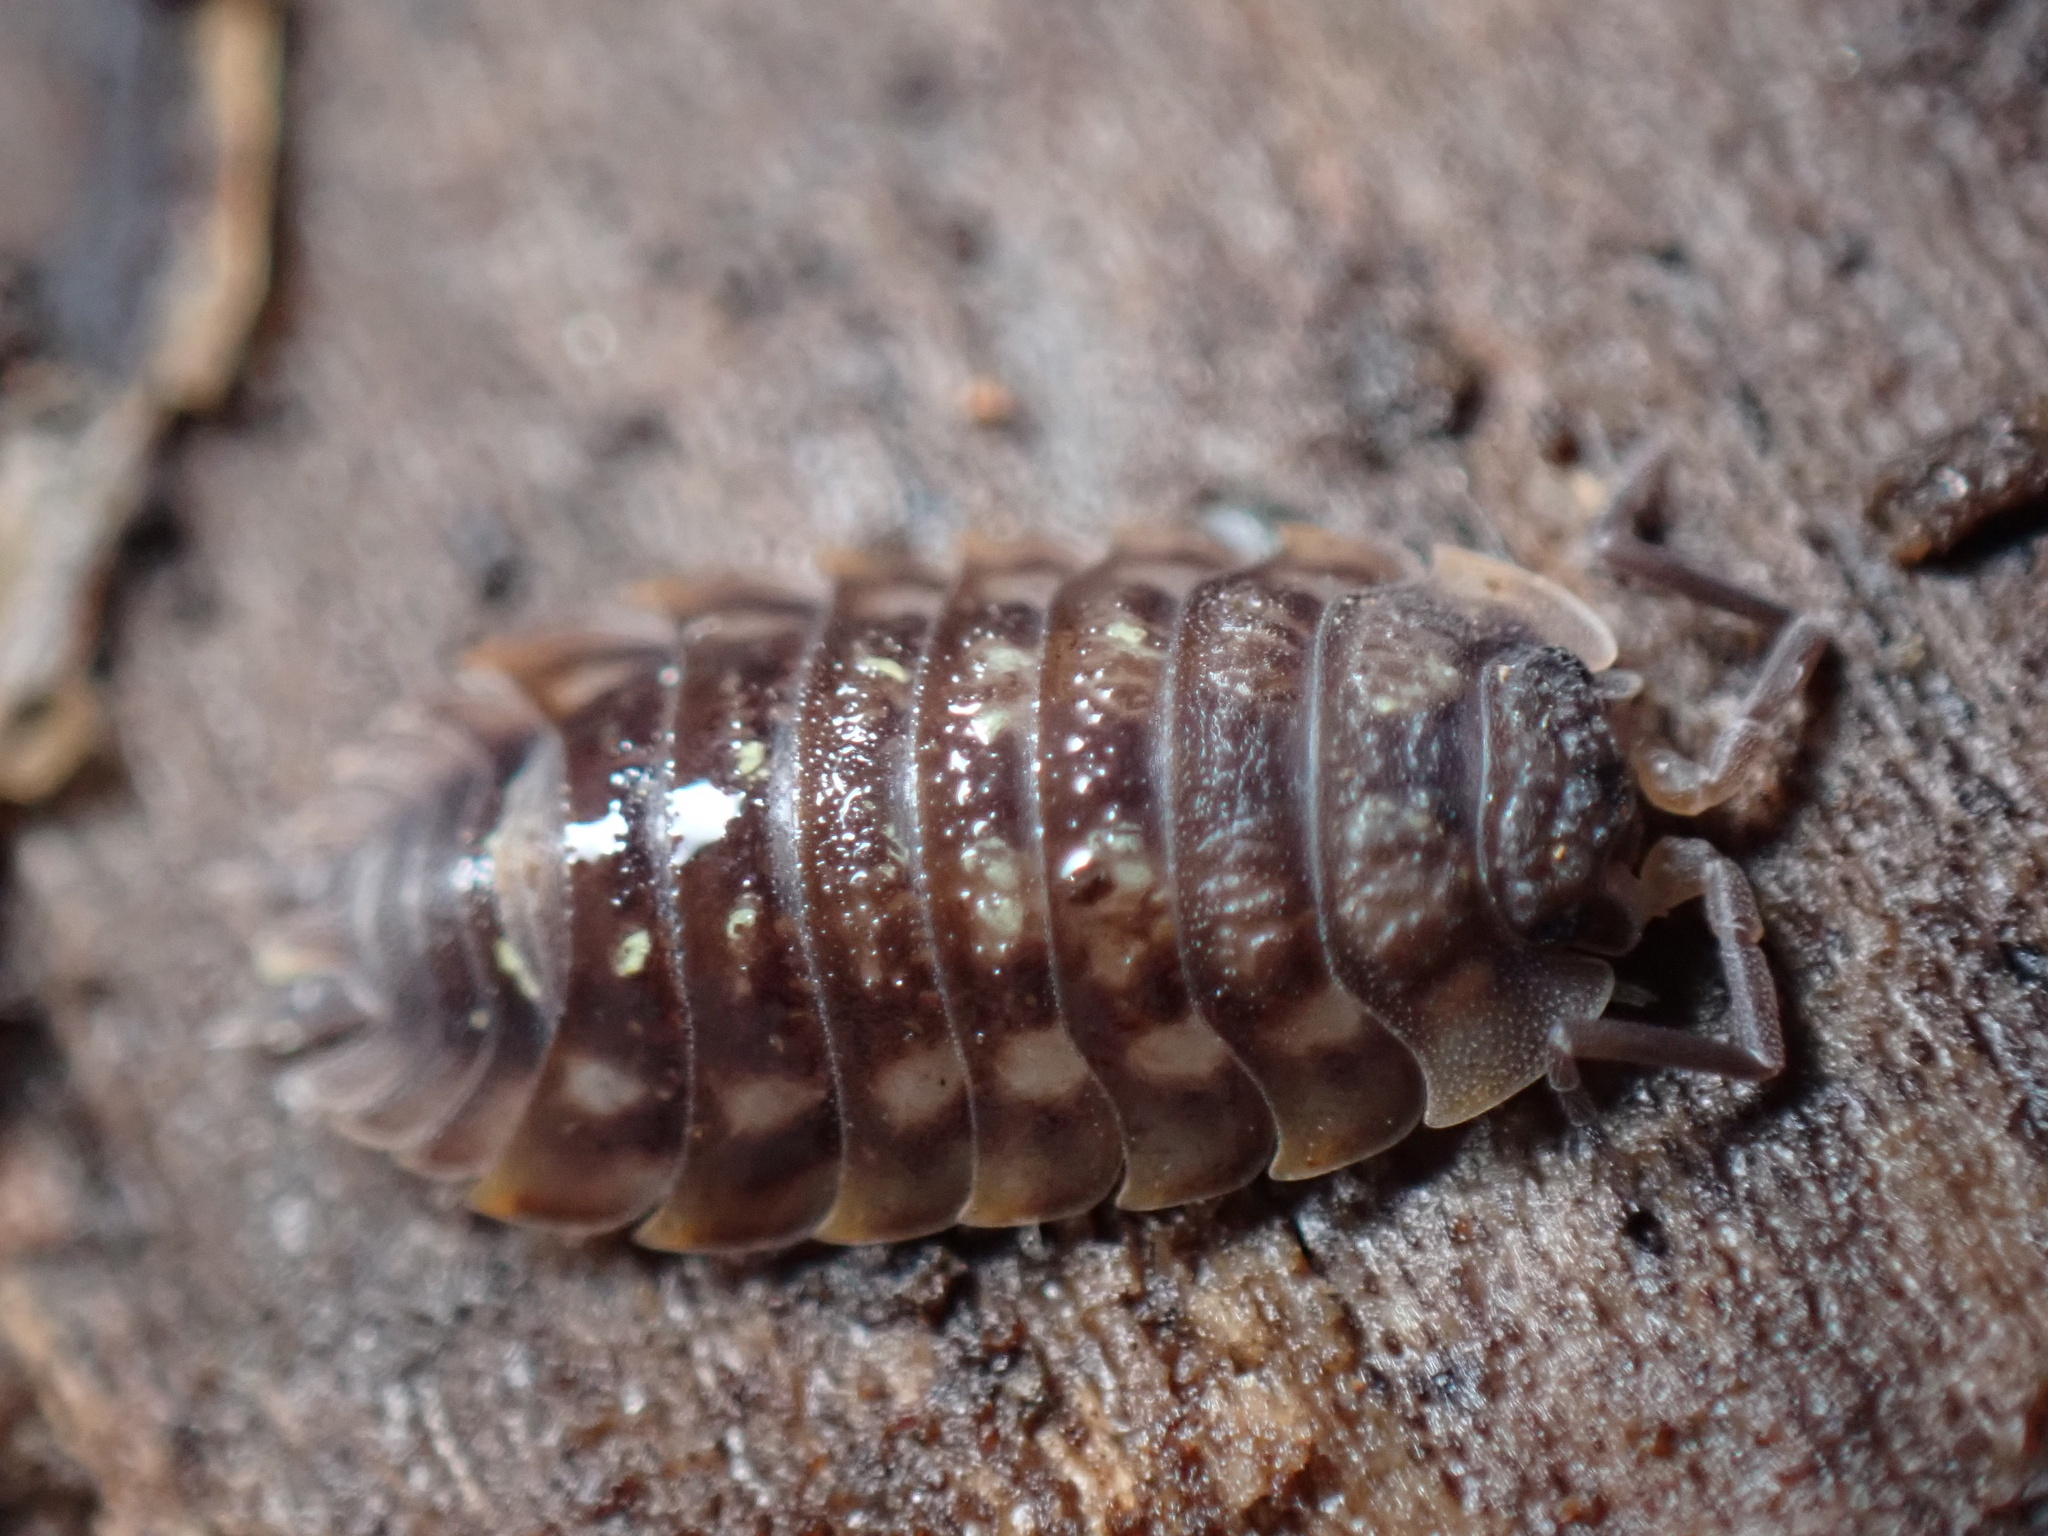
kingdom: Animalia
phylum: Arthropoda
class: Malacostraca
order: Isopoda
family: Oniscidae
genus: Oniscus
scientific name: Oniscus asellus
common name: Common shiny woodlouse
